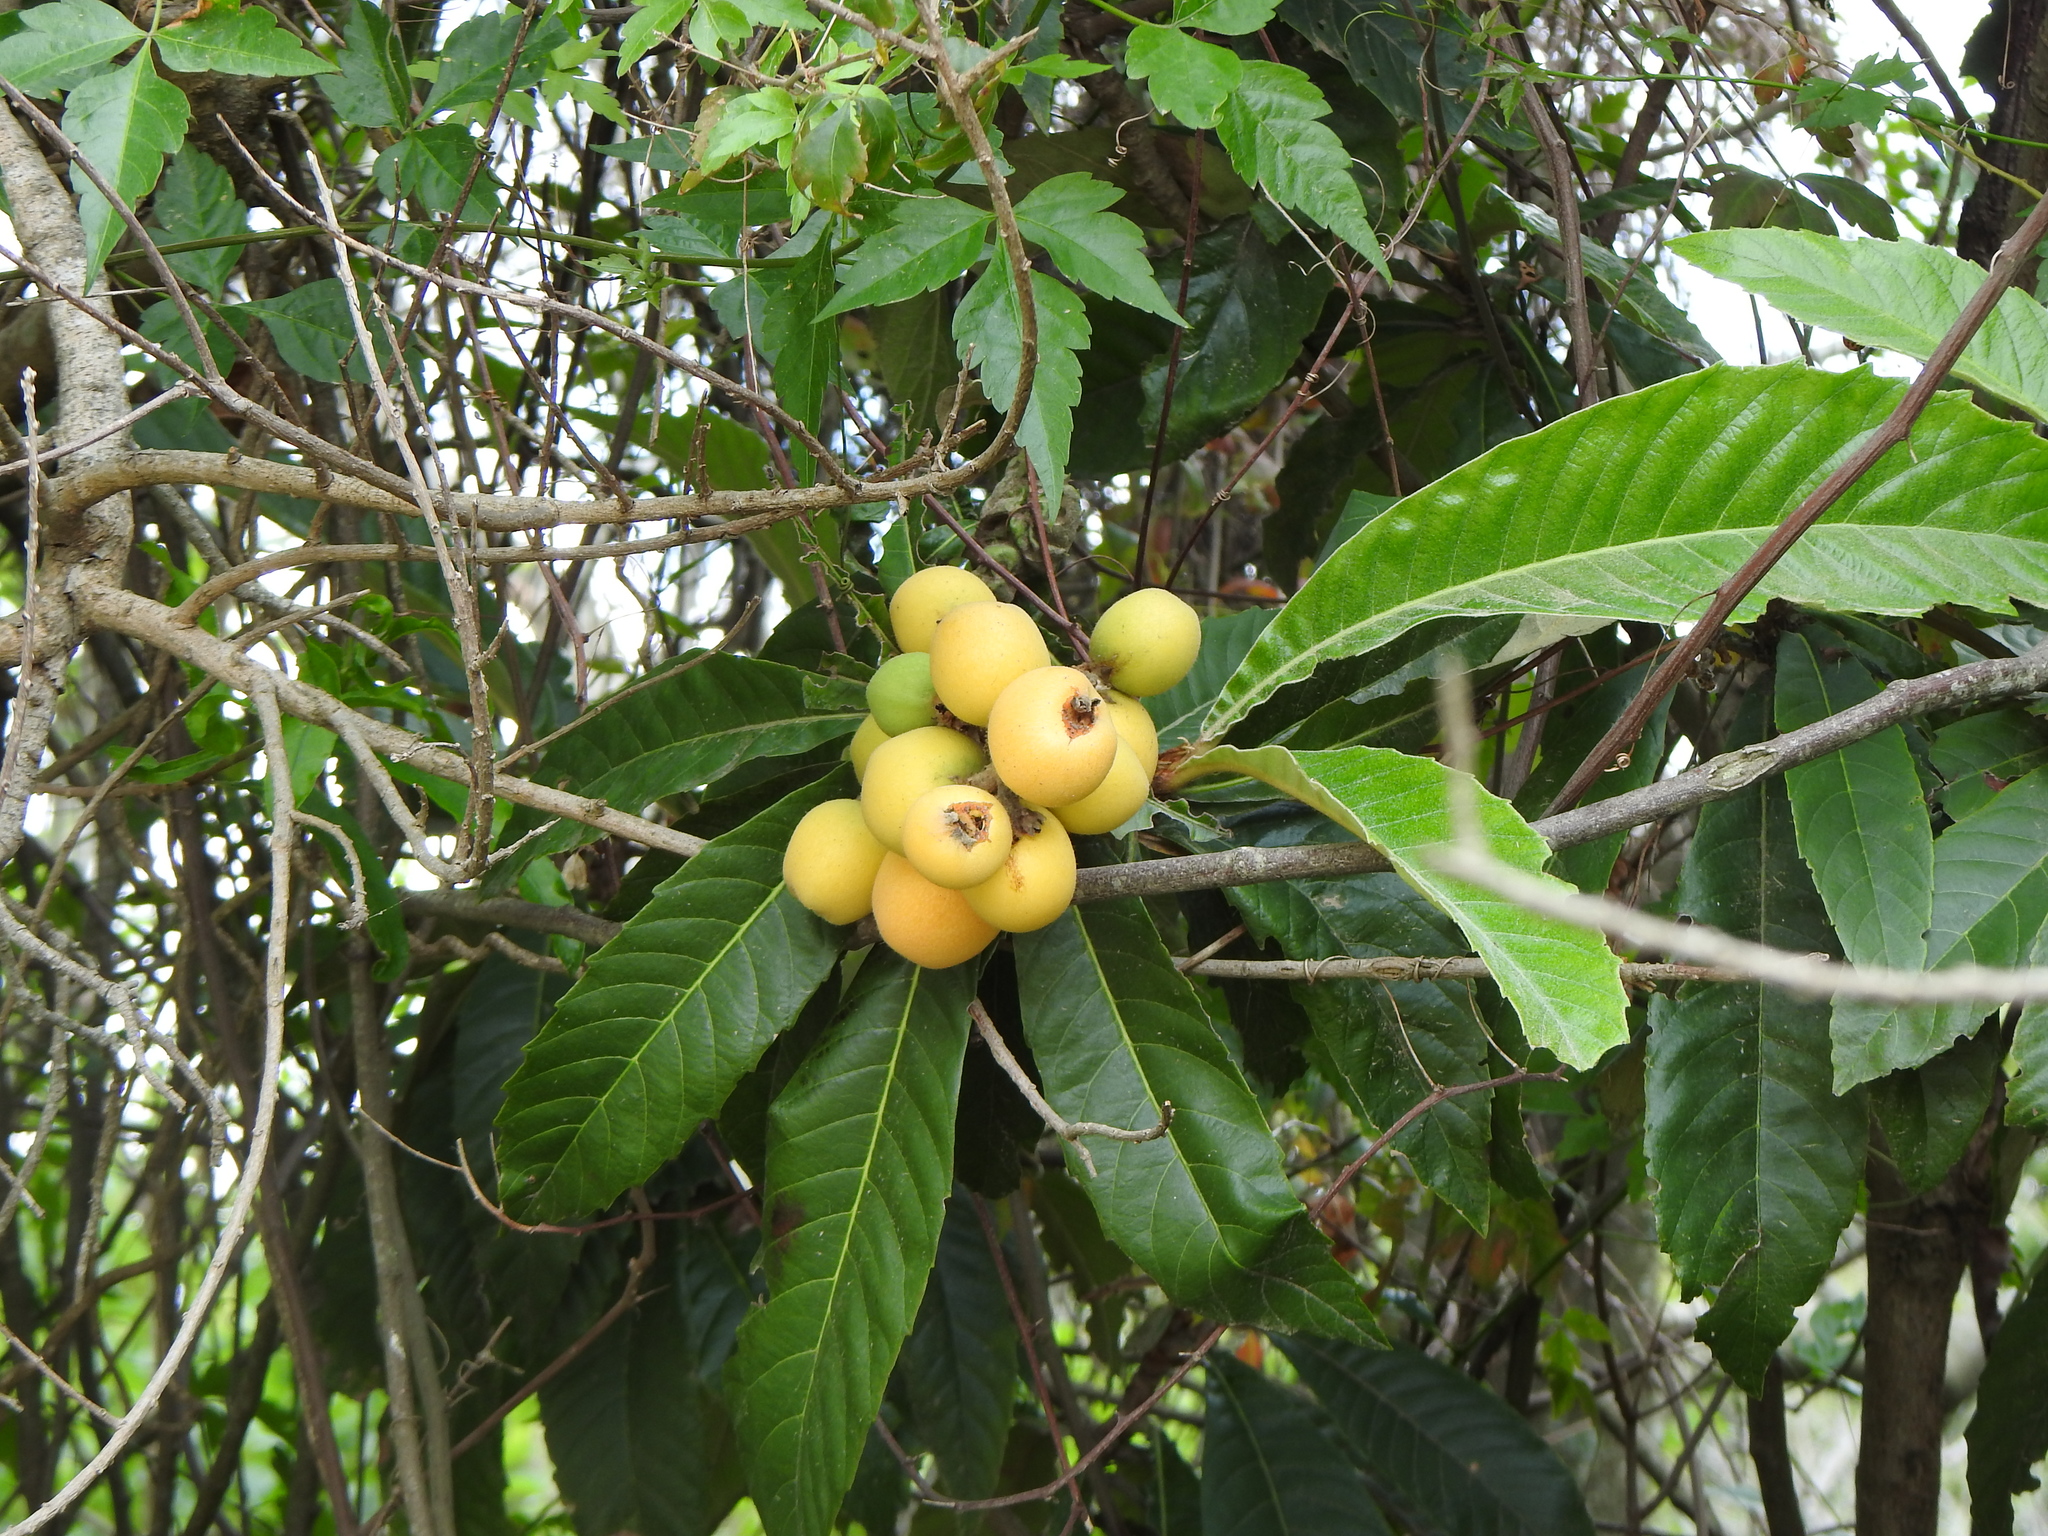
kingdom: Plantae
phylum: Tracheophyta
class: Magnoliopsida
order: Rosales
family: Rosaceae
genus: Rhaphiolepis
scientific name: Rhaphiolepis bibas
